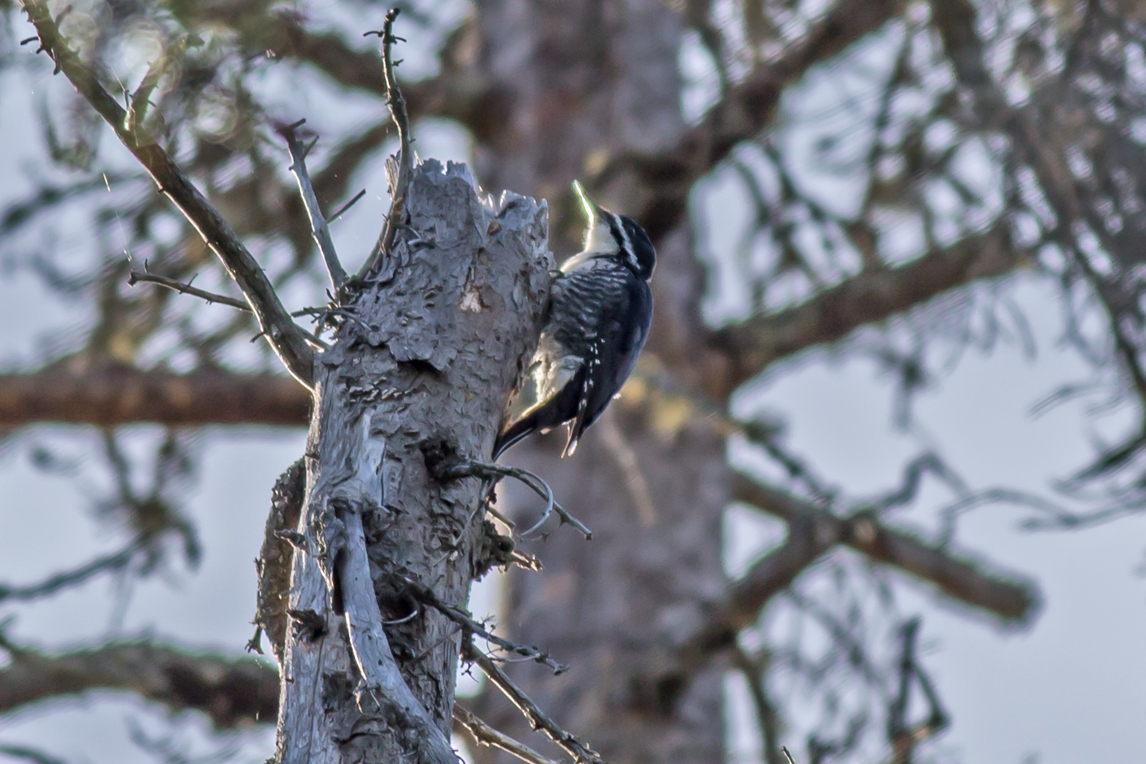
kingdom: Animalia
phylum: Chordata
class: Aves
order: Piciformes
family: Picidae
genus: Picoides
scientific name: Picoides arcticus
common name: Black-backed woodpecker
